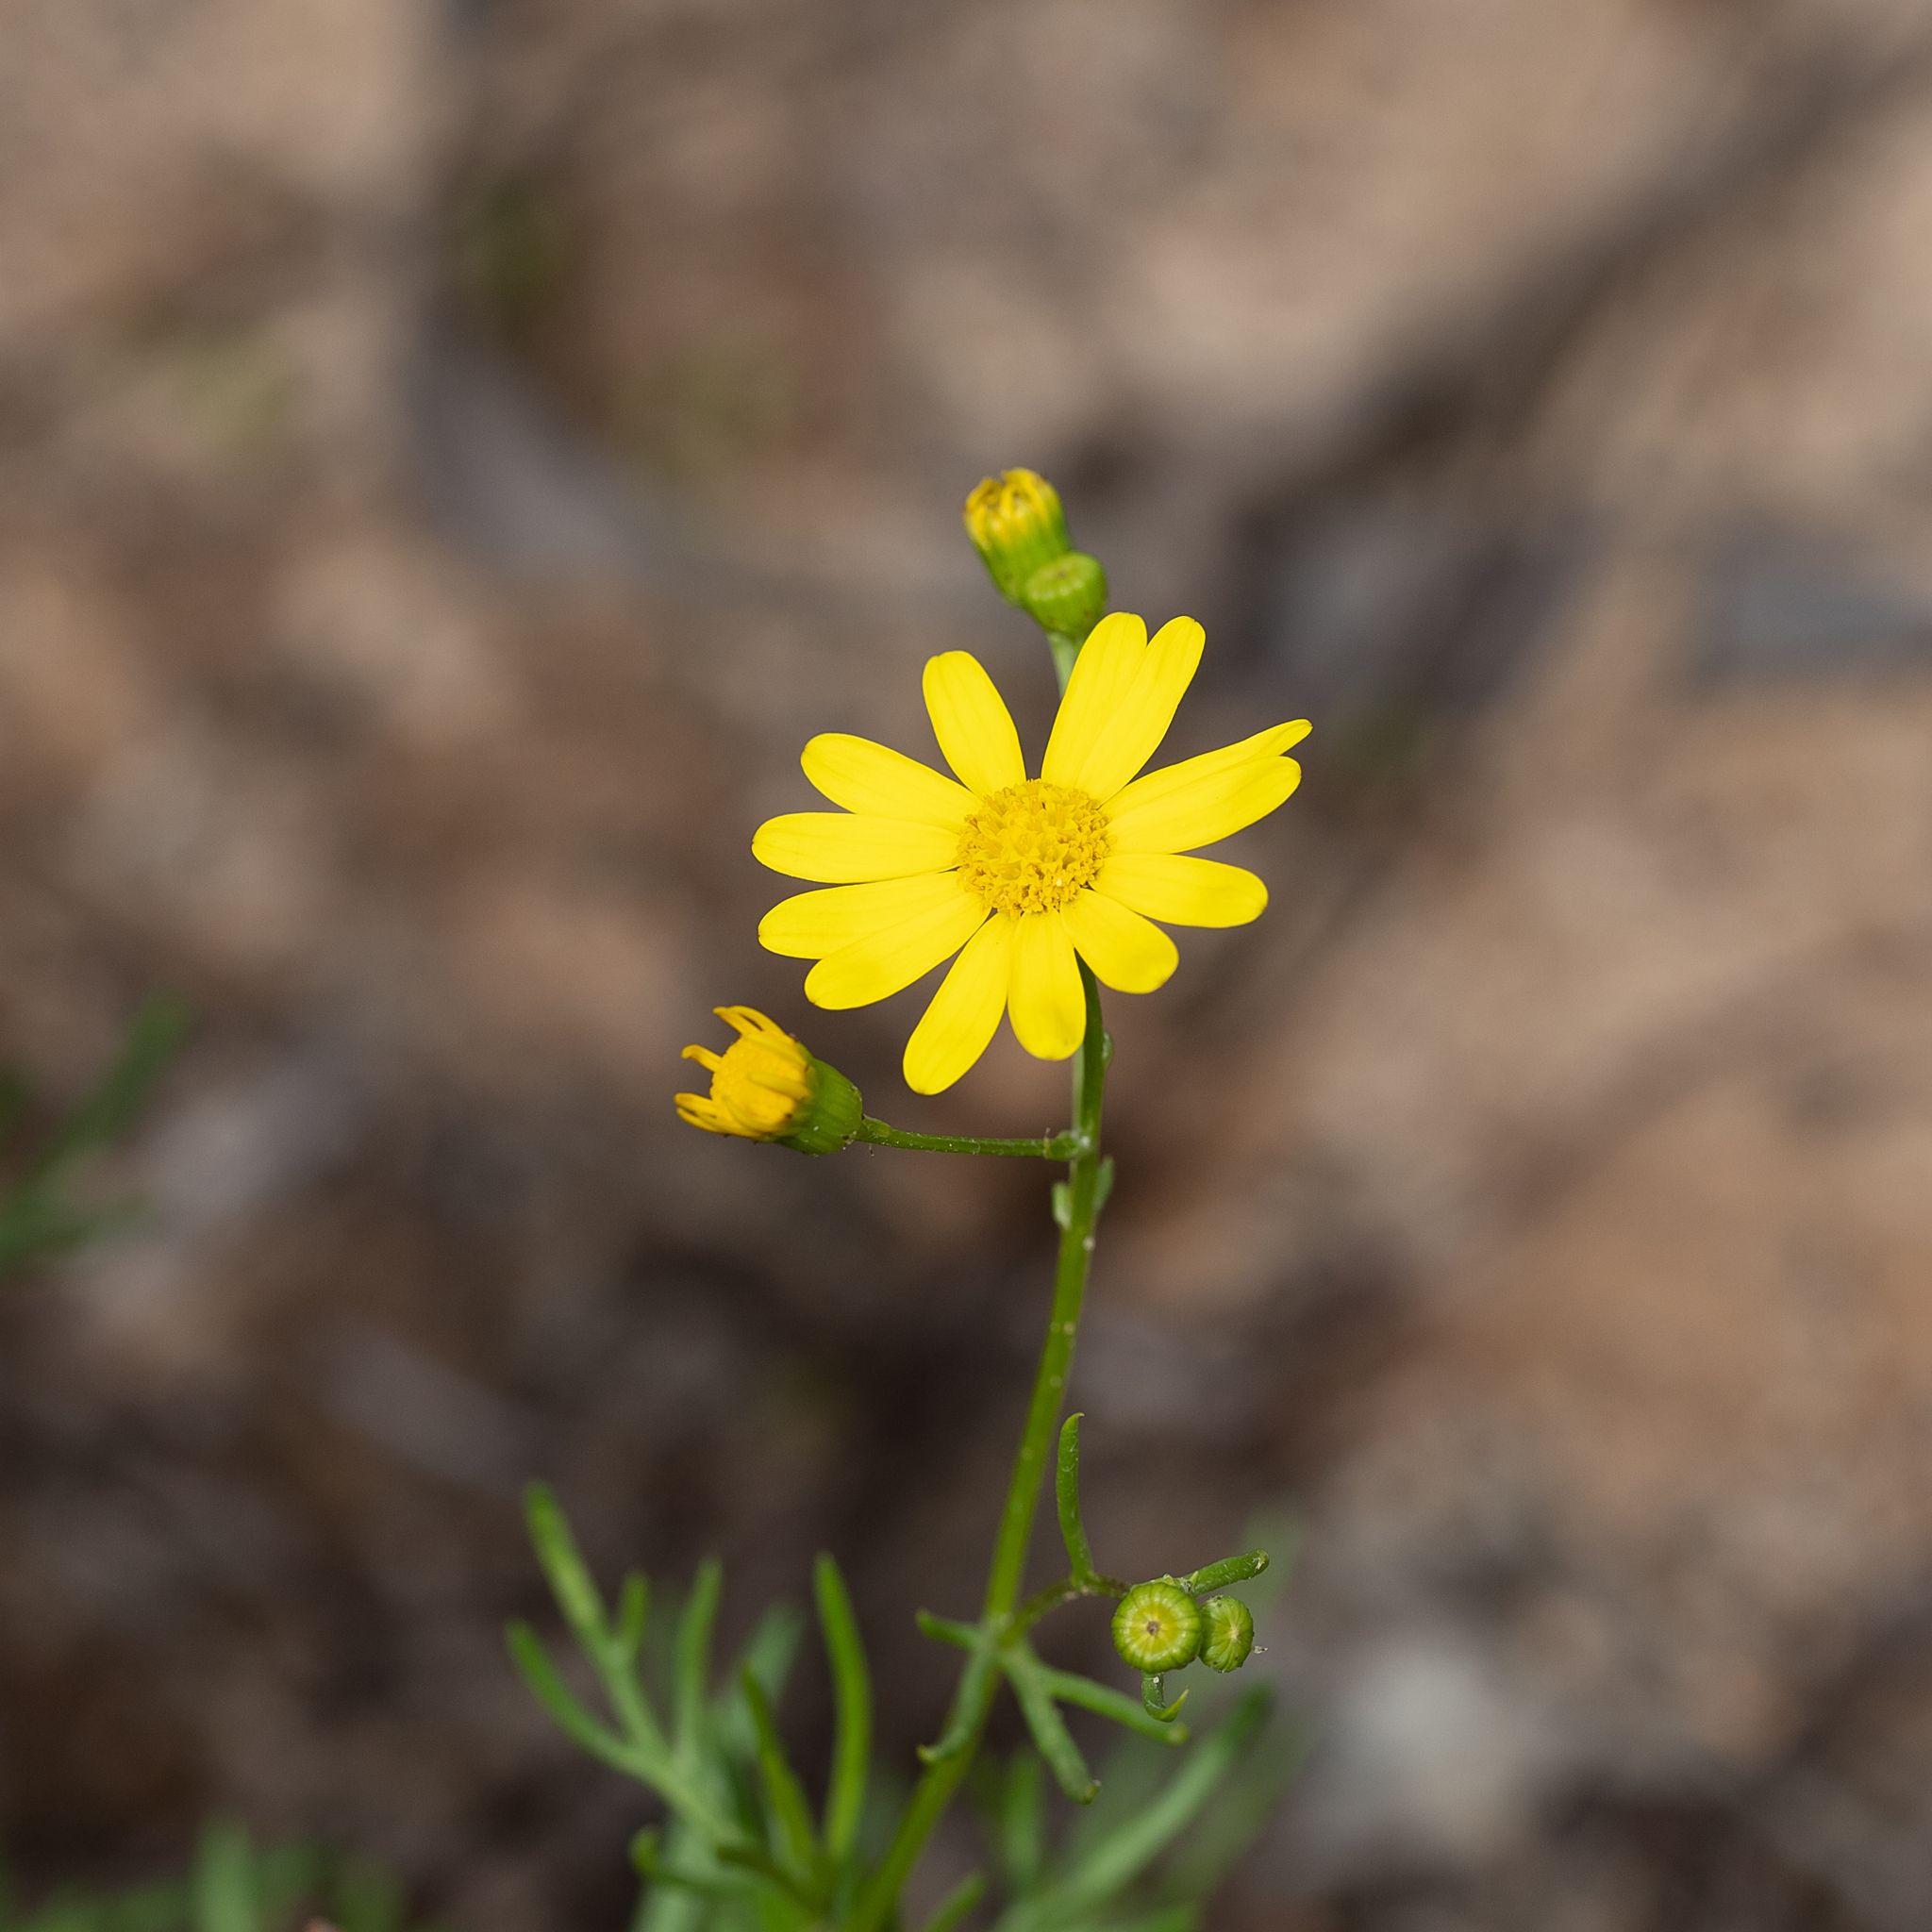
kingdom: Plantae
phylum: Tracheophyta
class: Magnoliopsida
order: Asterales
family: Asteraceae
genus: Senecio
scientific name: Senecio pinnatifolius
